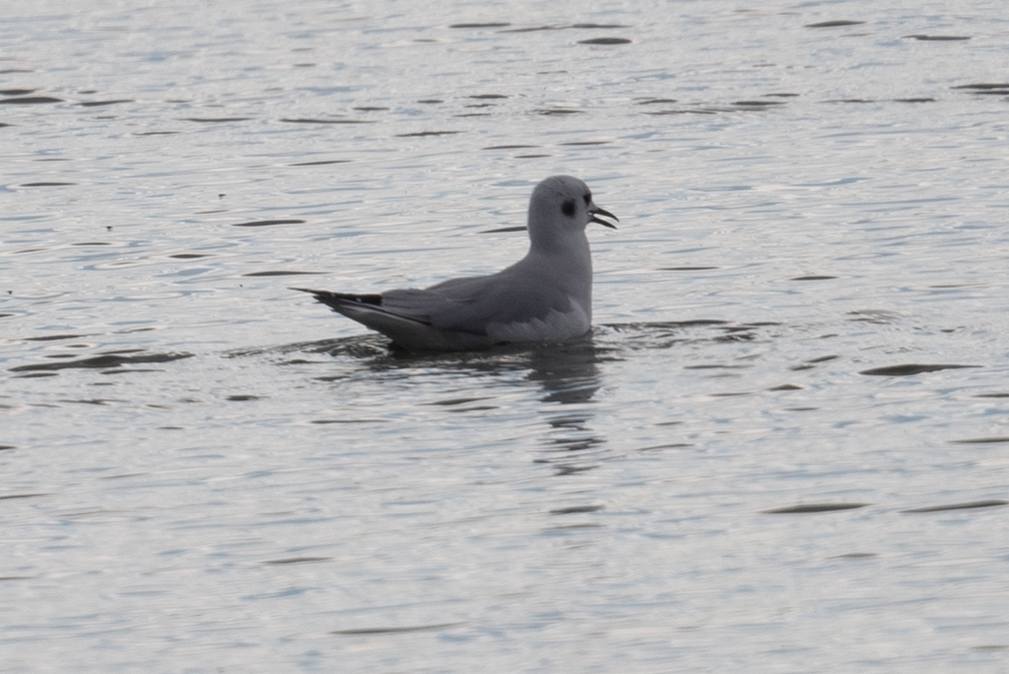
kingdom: Animalia
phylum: Chordata
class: Aves
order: Charadriiformes
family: Laridae
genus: Chroicocephalus
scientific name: Chroicocephalus philadelphia
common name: Bonaparte's gull
